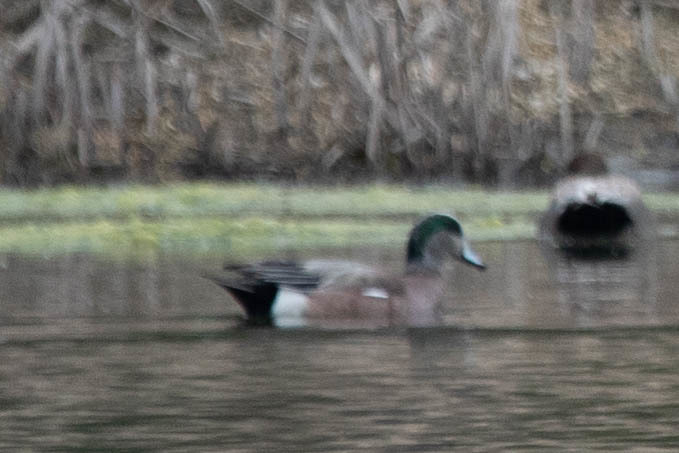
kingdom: Animalia
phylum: Chordata
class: Aves
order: Anseriformes
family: Anatidae
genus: Mareca
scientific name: Mareca americana
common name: American wigeon
